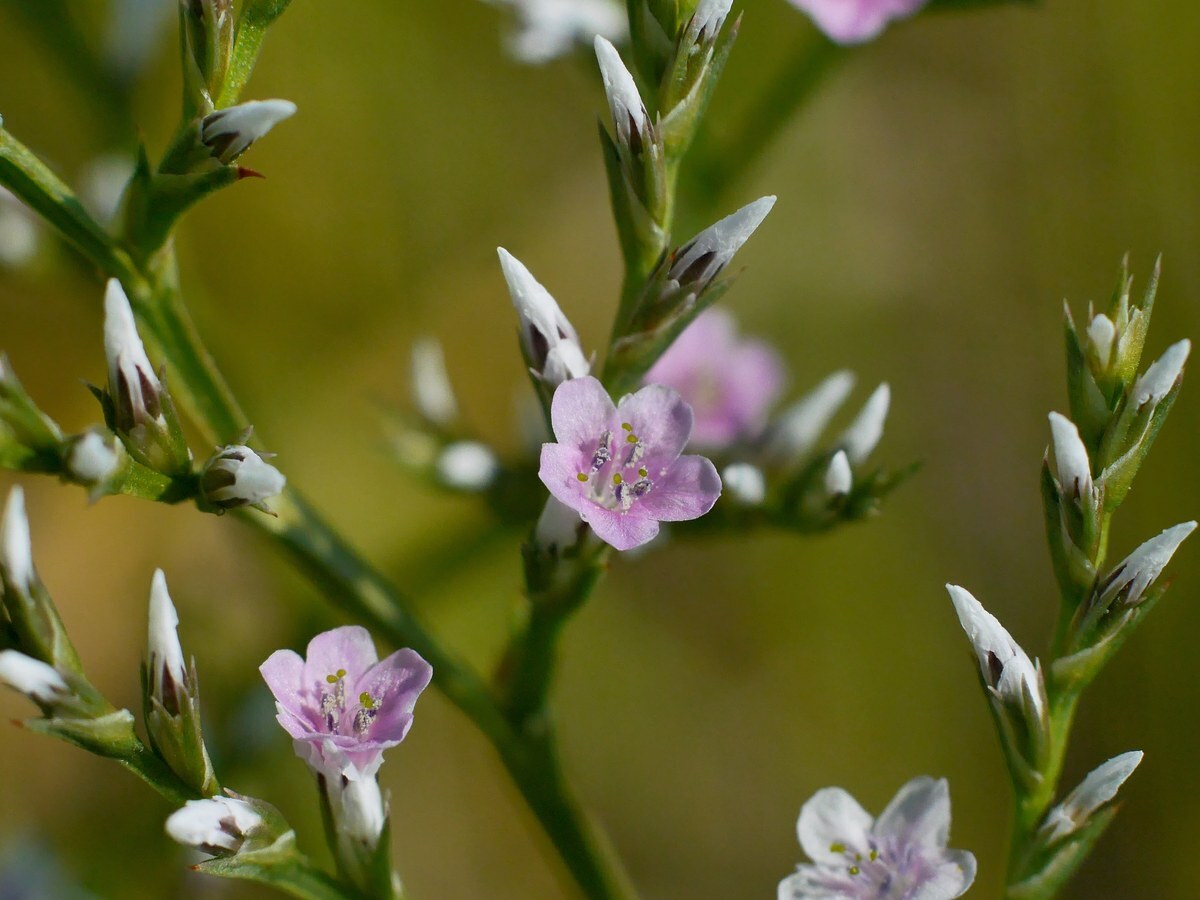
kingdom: Plantae
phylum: Tracheophyta
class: Magnoliopsida
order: Caryophyllales
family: Plumbaginaceae
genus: Goniolimon
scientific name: Goniolimon tataricum
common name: Statice
